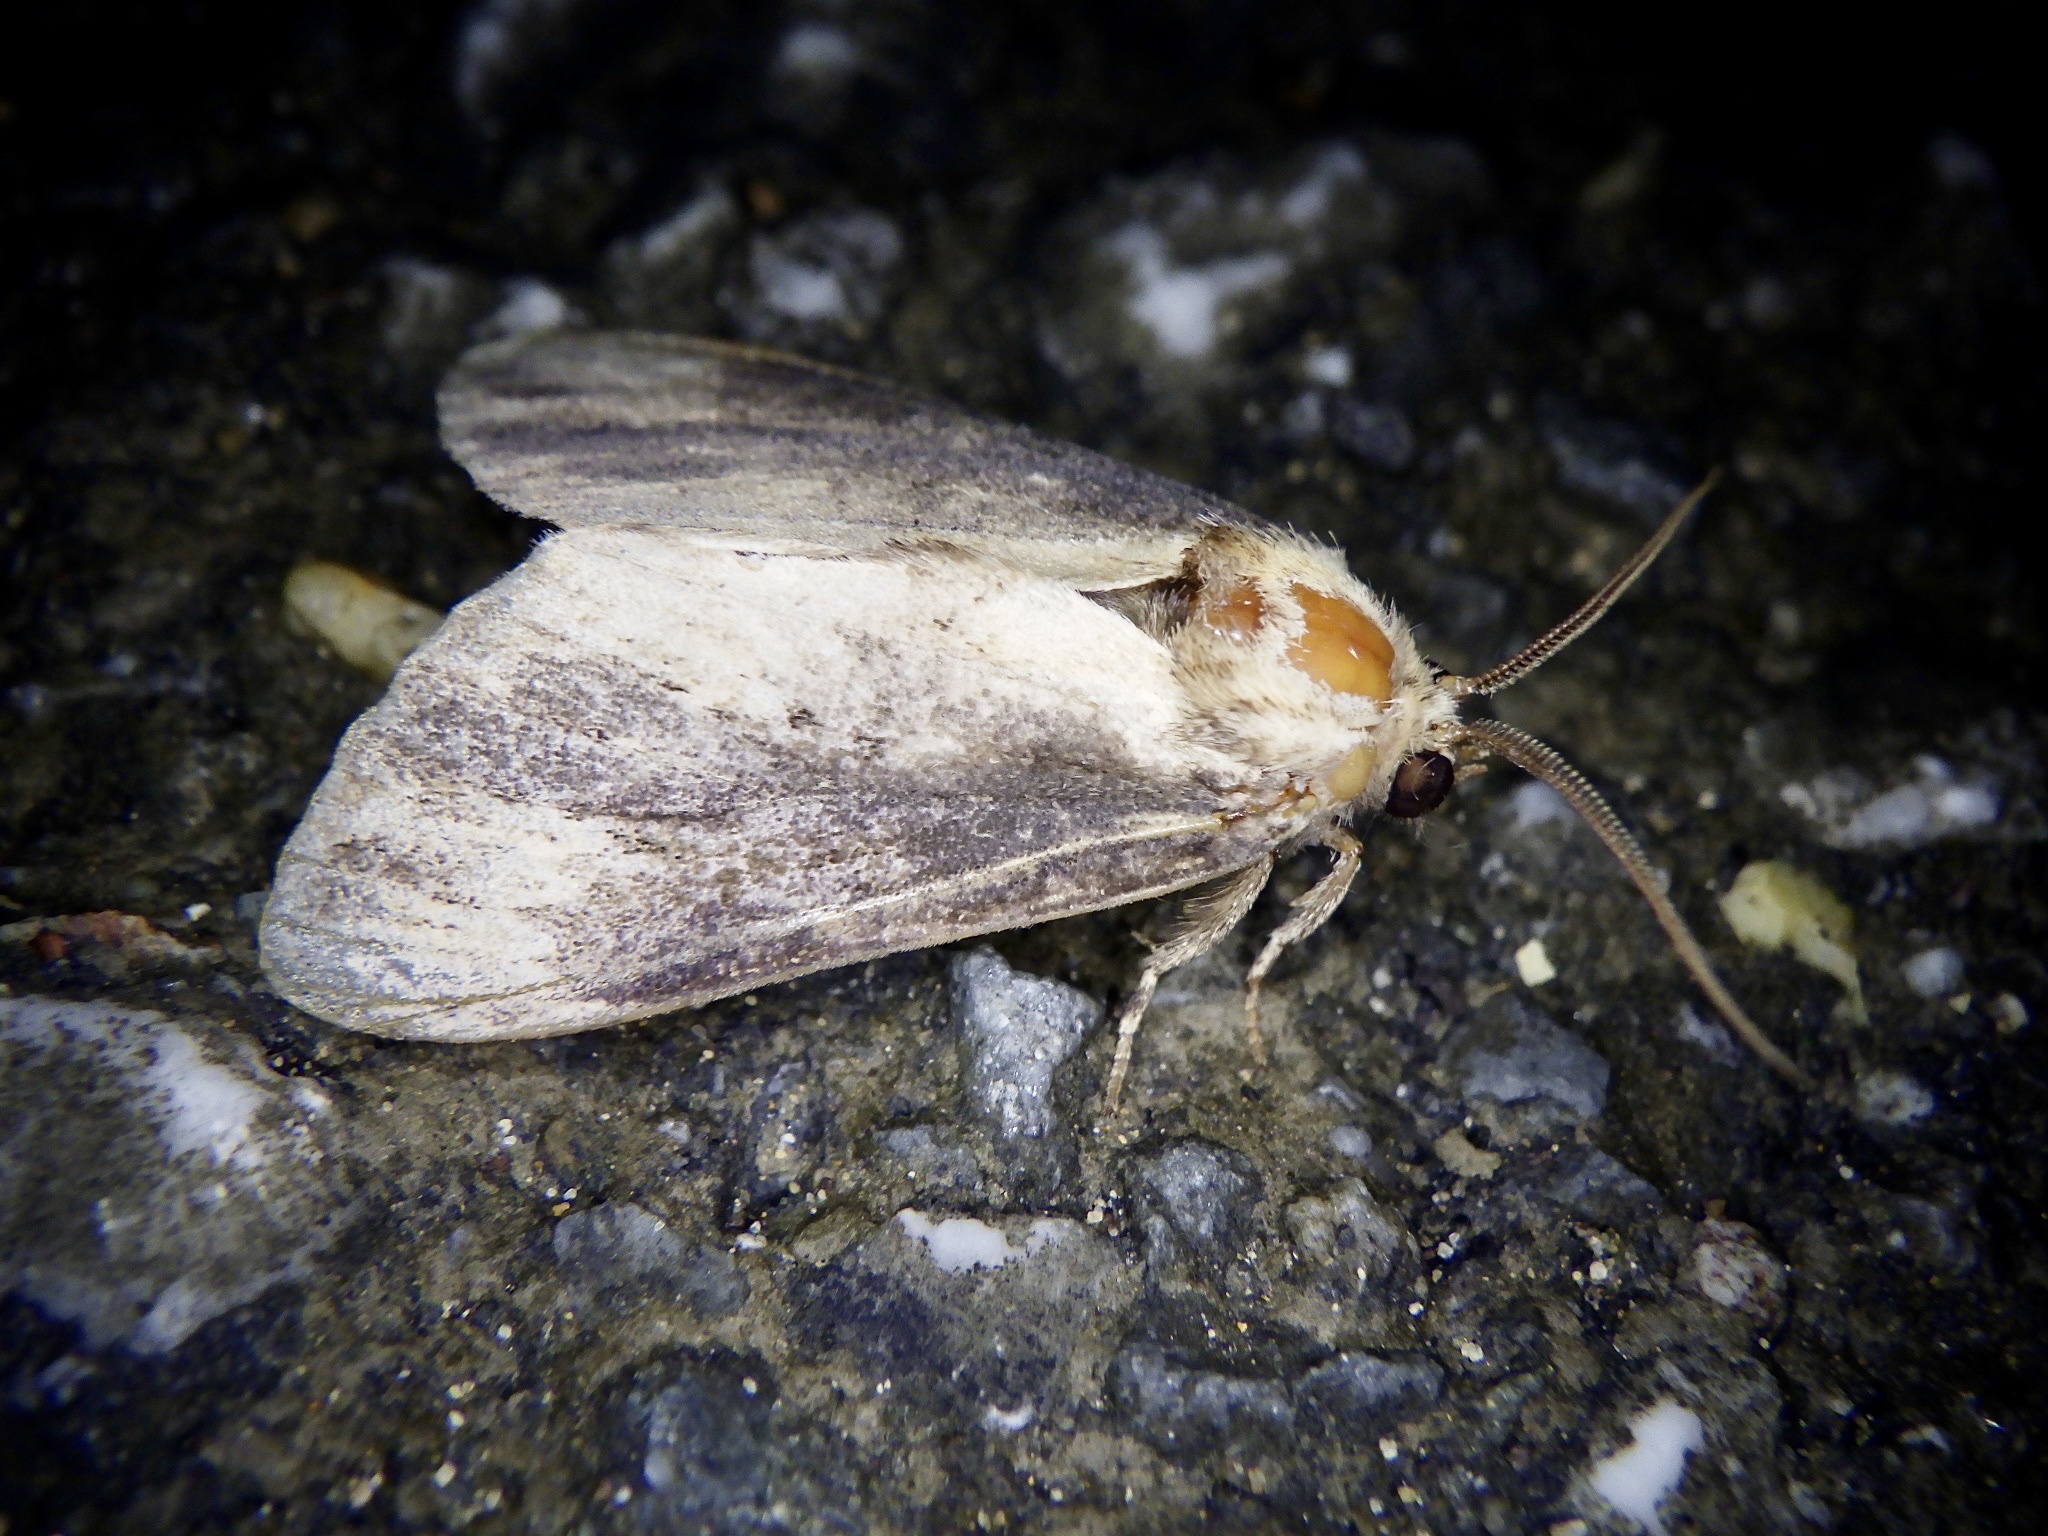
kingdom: Animalia
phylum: Arthropoda
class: Insecta
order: Lepidoptera
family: Notodontidae
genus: Hiradonta
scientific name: Hiradonta takaonis
